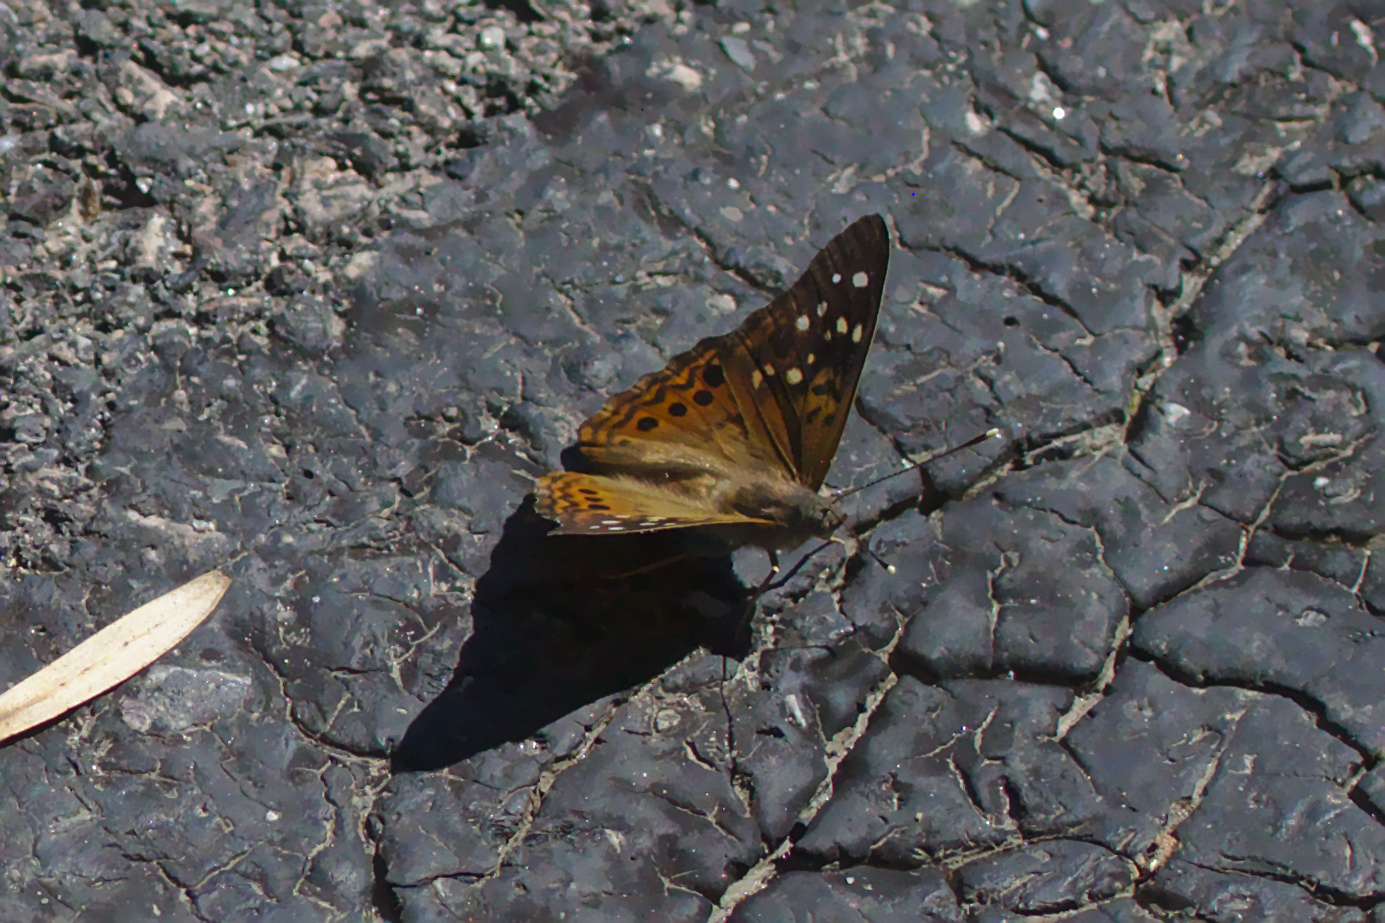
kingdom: Animalia
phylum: Arthropoda
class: Insecta
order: Lepidoptera
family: Nymphalidae
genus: Asterocampa
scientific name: Asterocampa celtis
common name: Hackberry emperor
